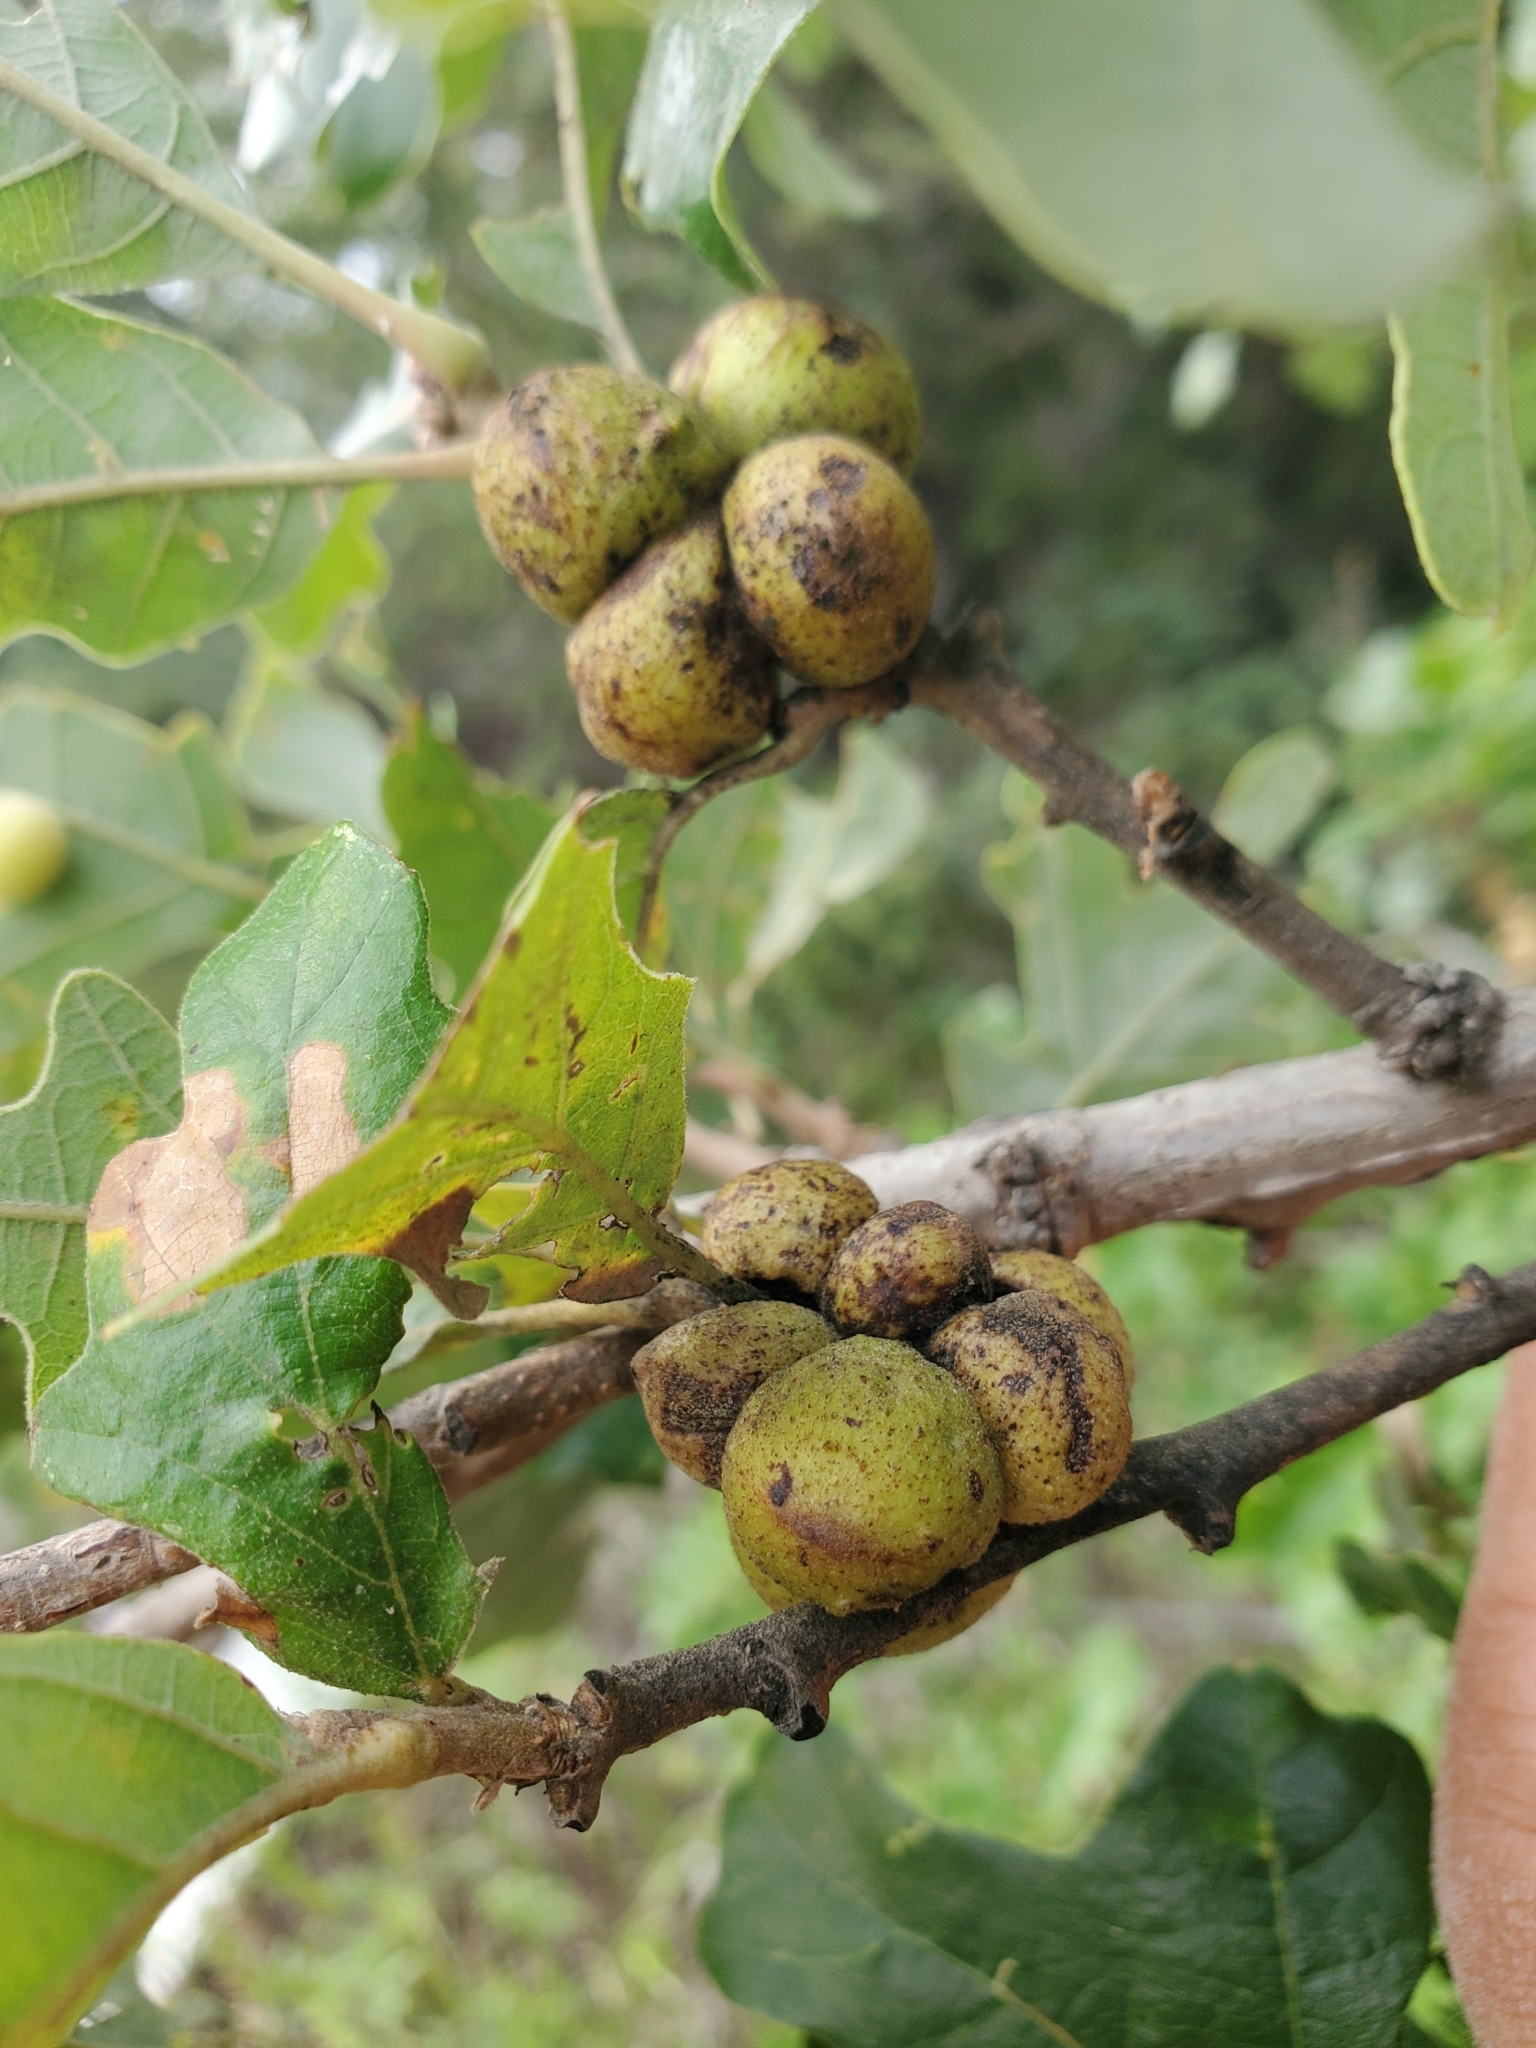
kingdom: Animalia
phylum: Arthropoda
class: Insecta
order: Hymenoptera
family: Cynipidae
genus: Disholcaspis
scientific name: Disholcaspis
